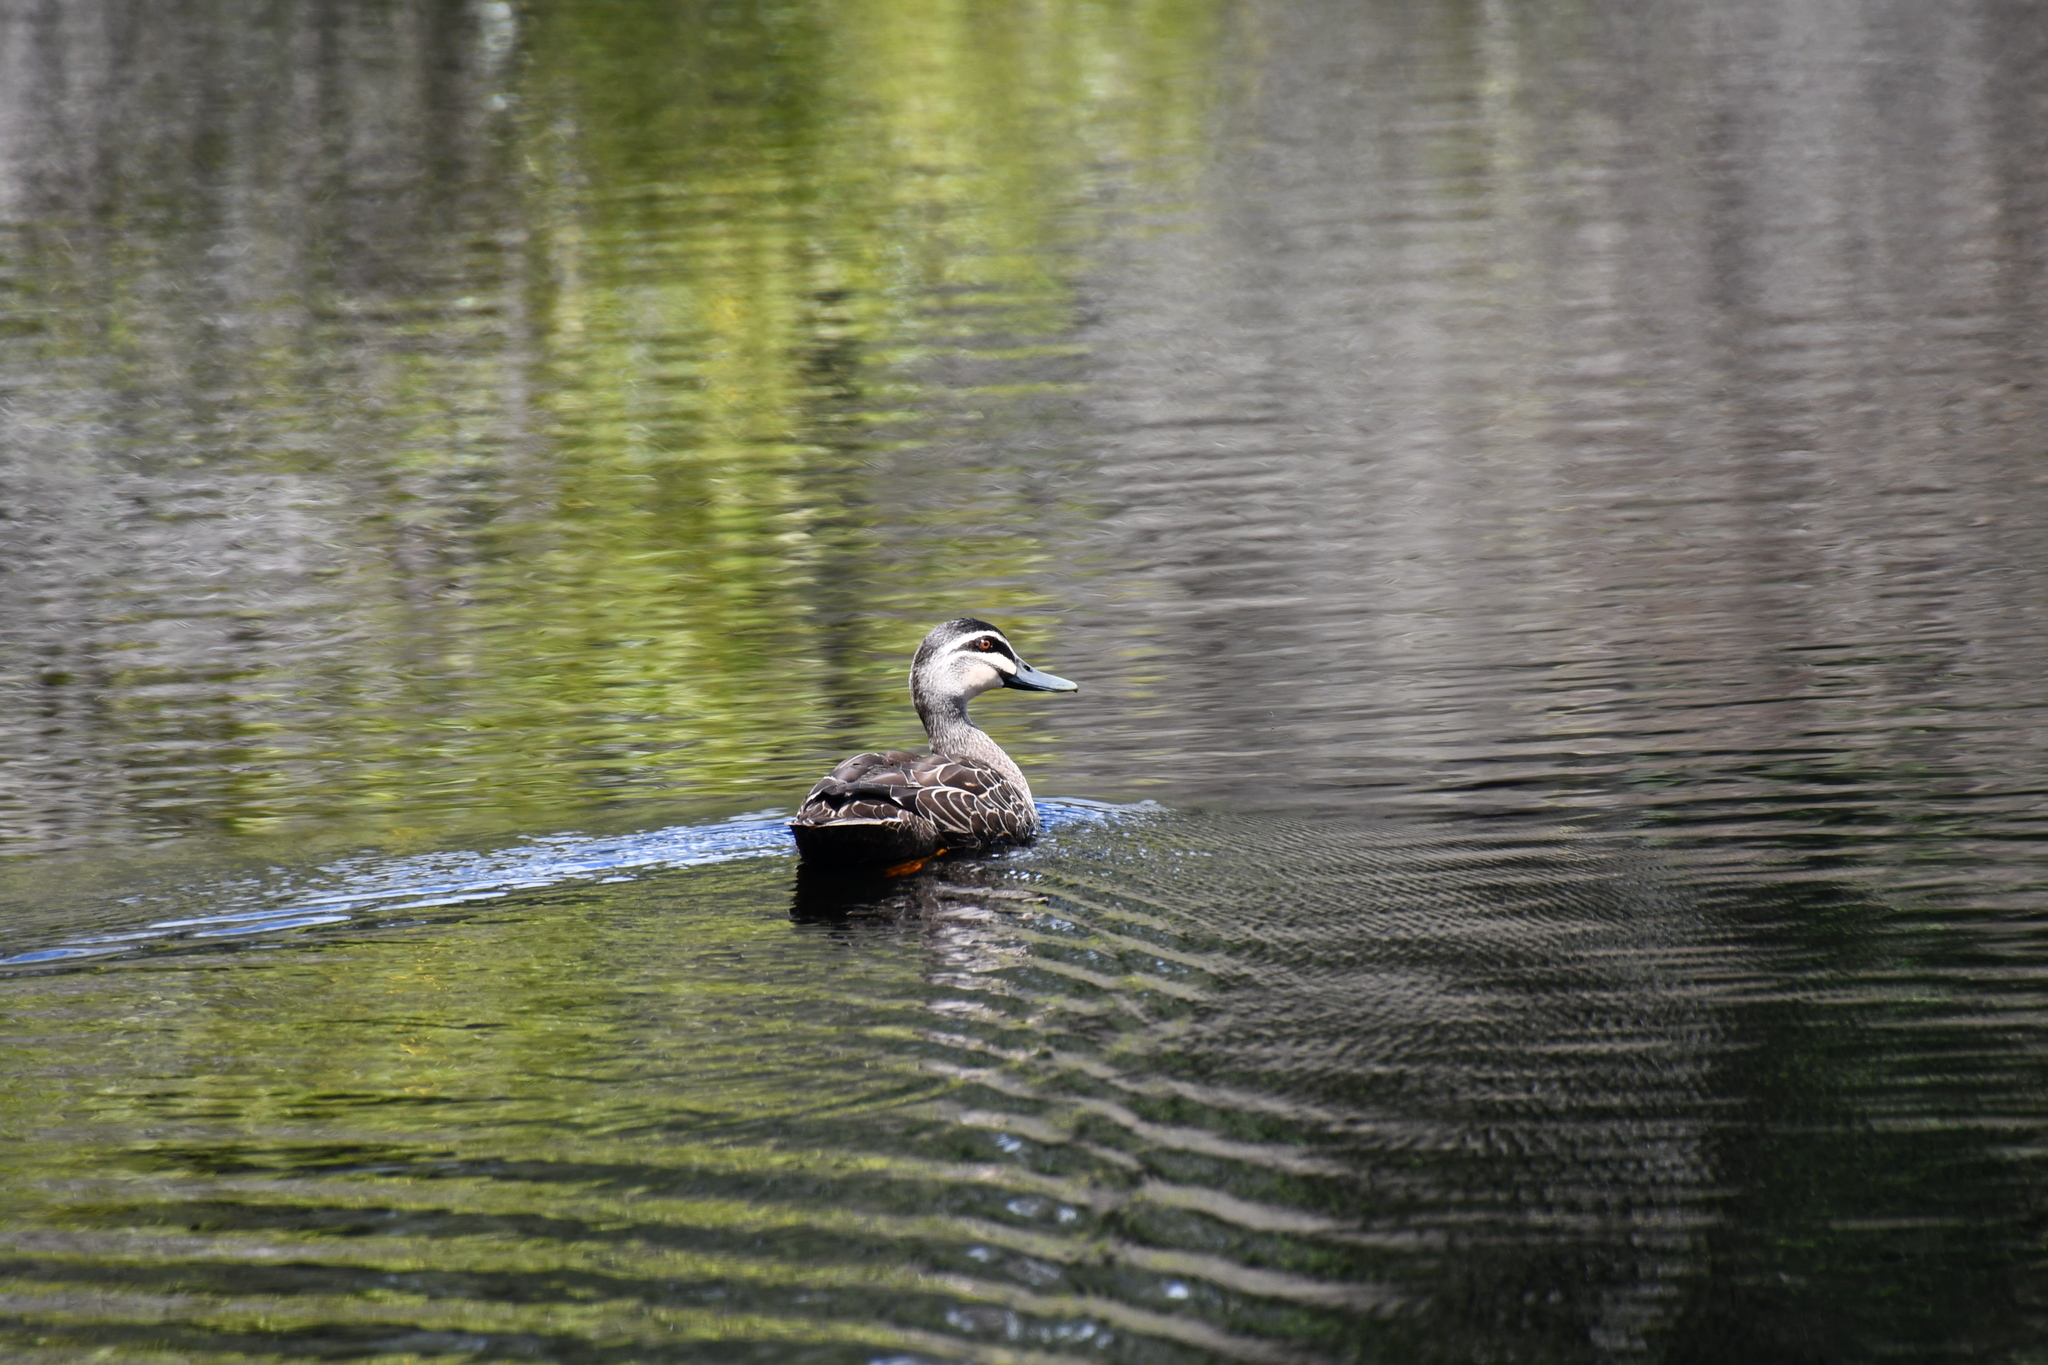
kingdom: Animalia
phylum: Chordata
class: Aves
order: Anseriformes
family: Anatidae
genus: Anas
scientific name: Anas
